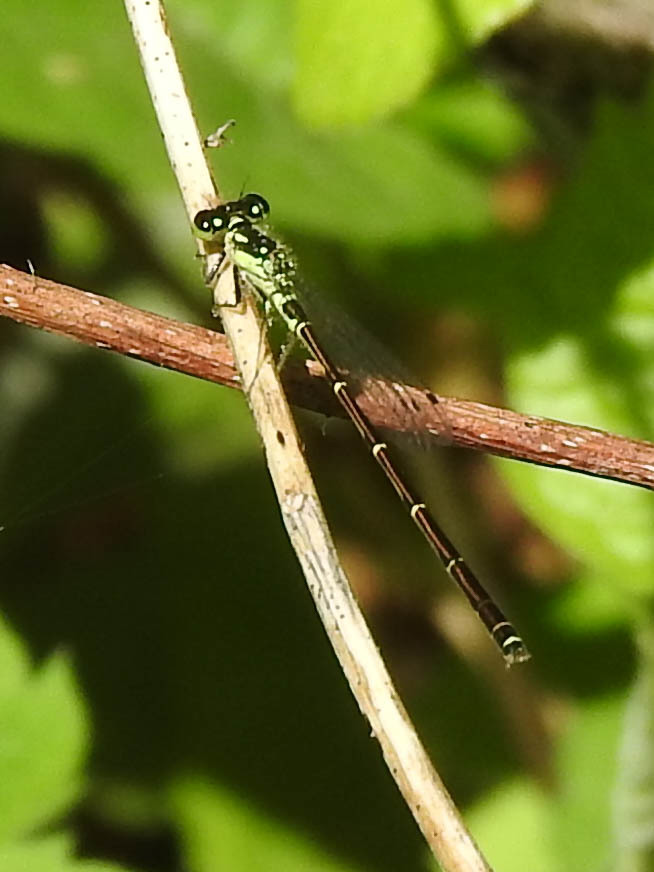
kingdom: Animalia
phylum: Arthropoda
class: Insecta
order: Odonata
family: Coenagrionidae
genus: Ischnura
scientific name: Ischnura posita
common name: Fragile forktail
